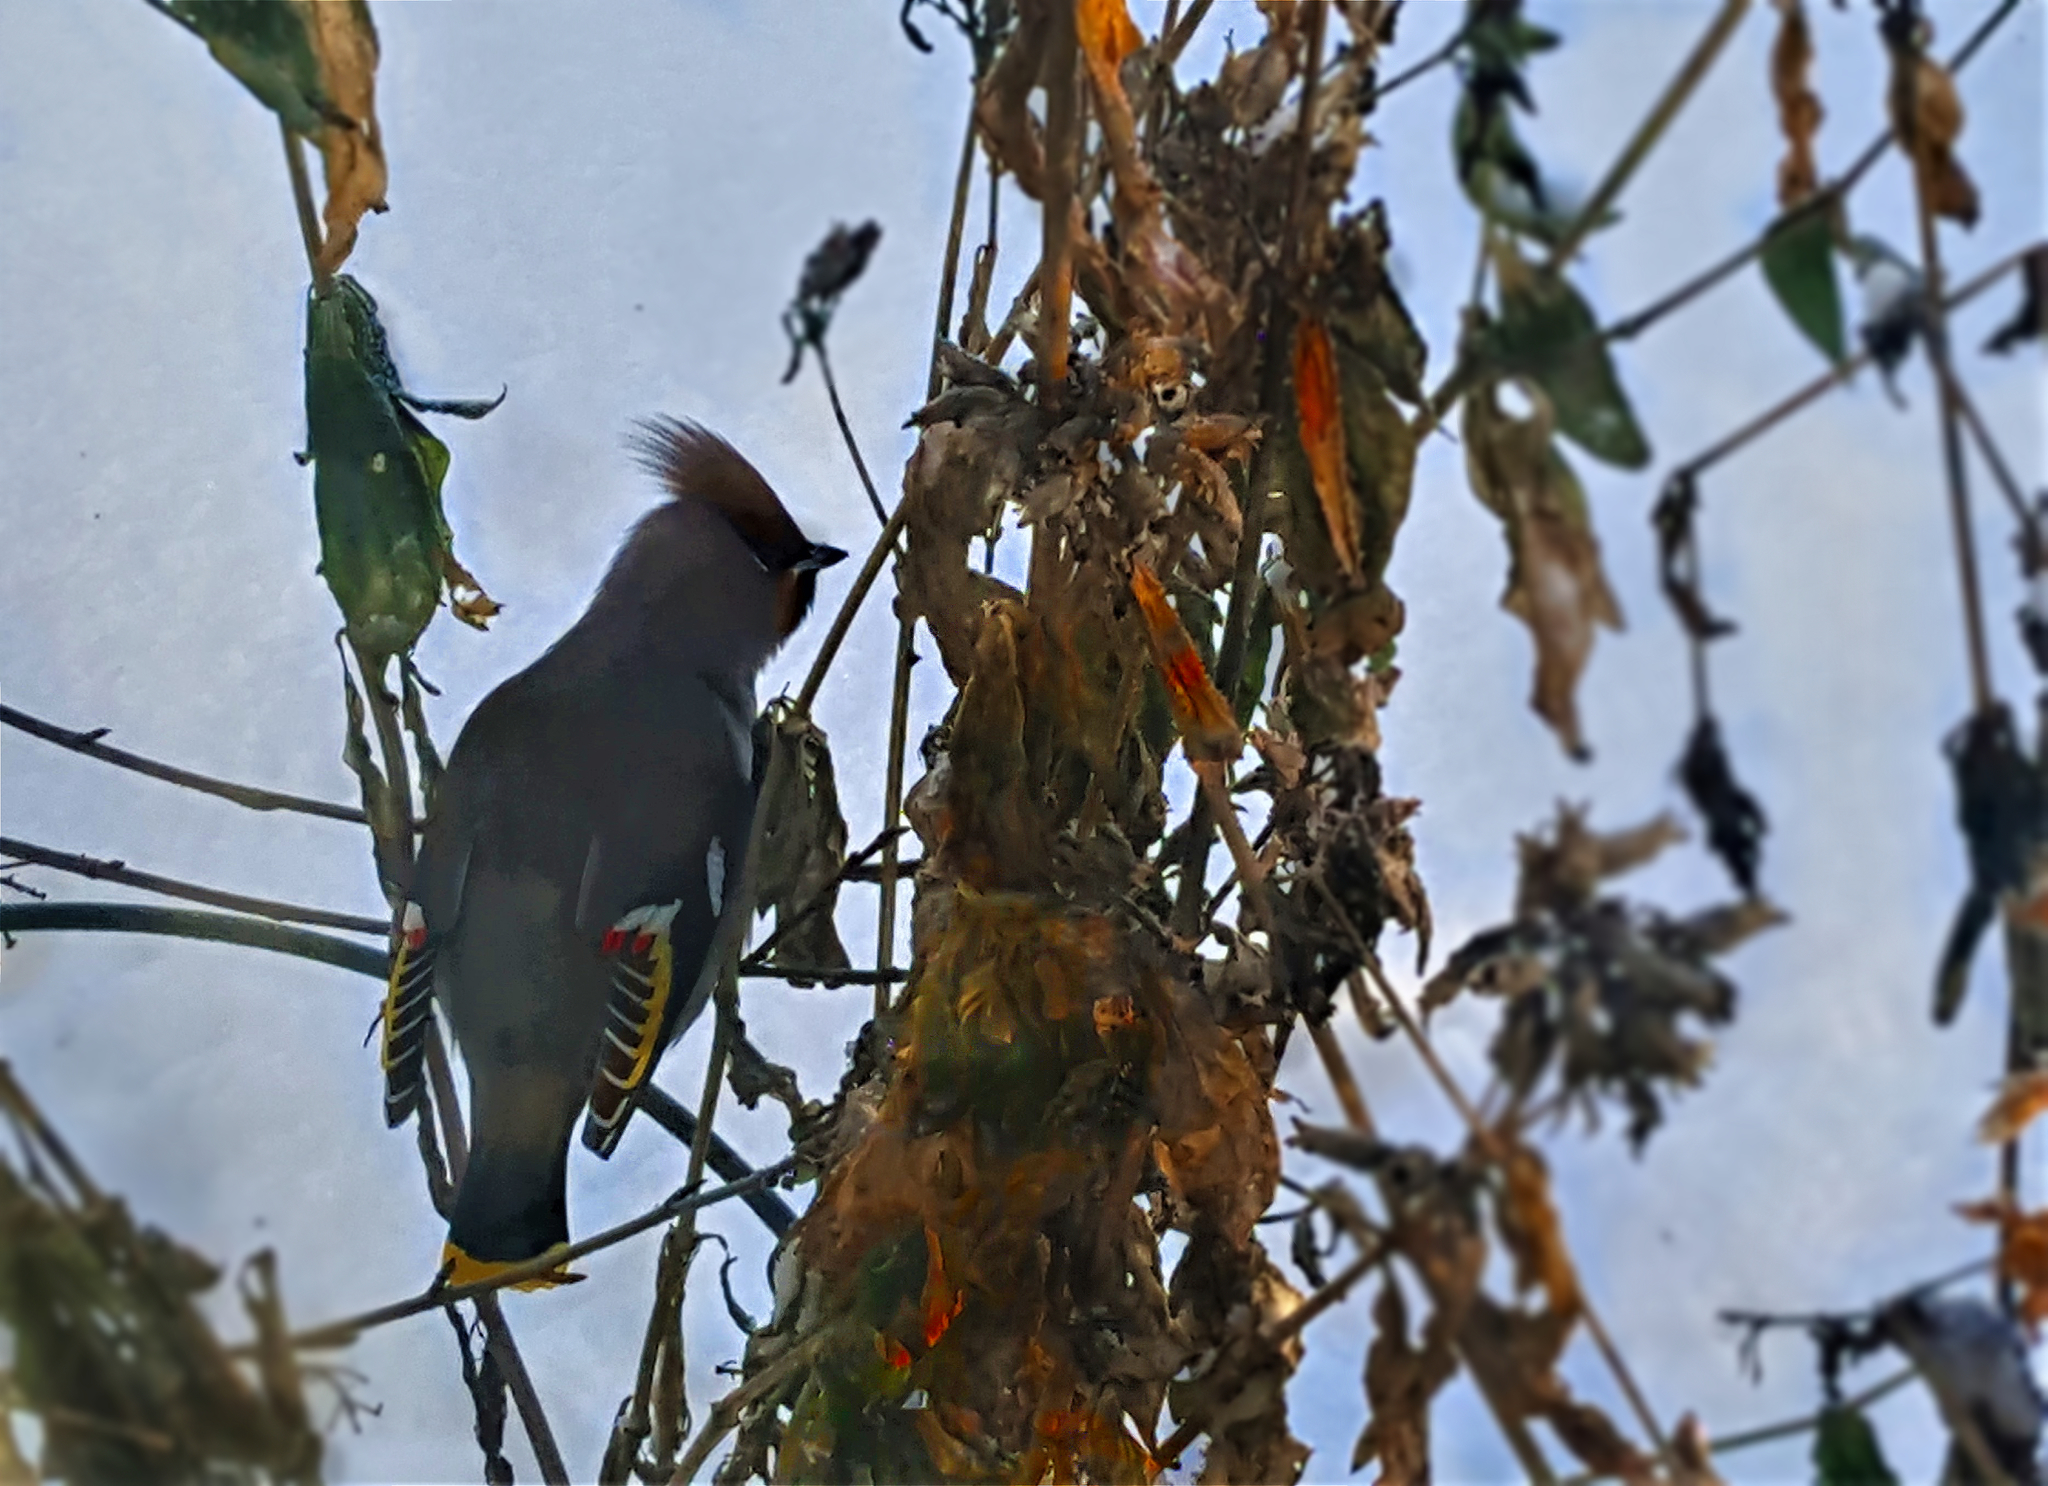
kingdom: Animalia
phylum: Chordata
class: Aves
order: Passeriformes
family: Bombycillidae
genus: Bombycilla
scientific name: Bombycilla garrulus
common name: Bohemian waxwing
